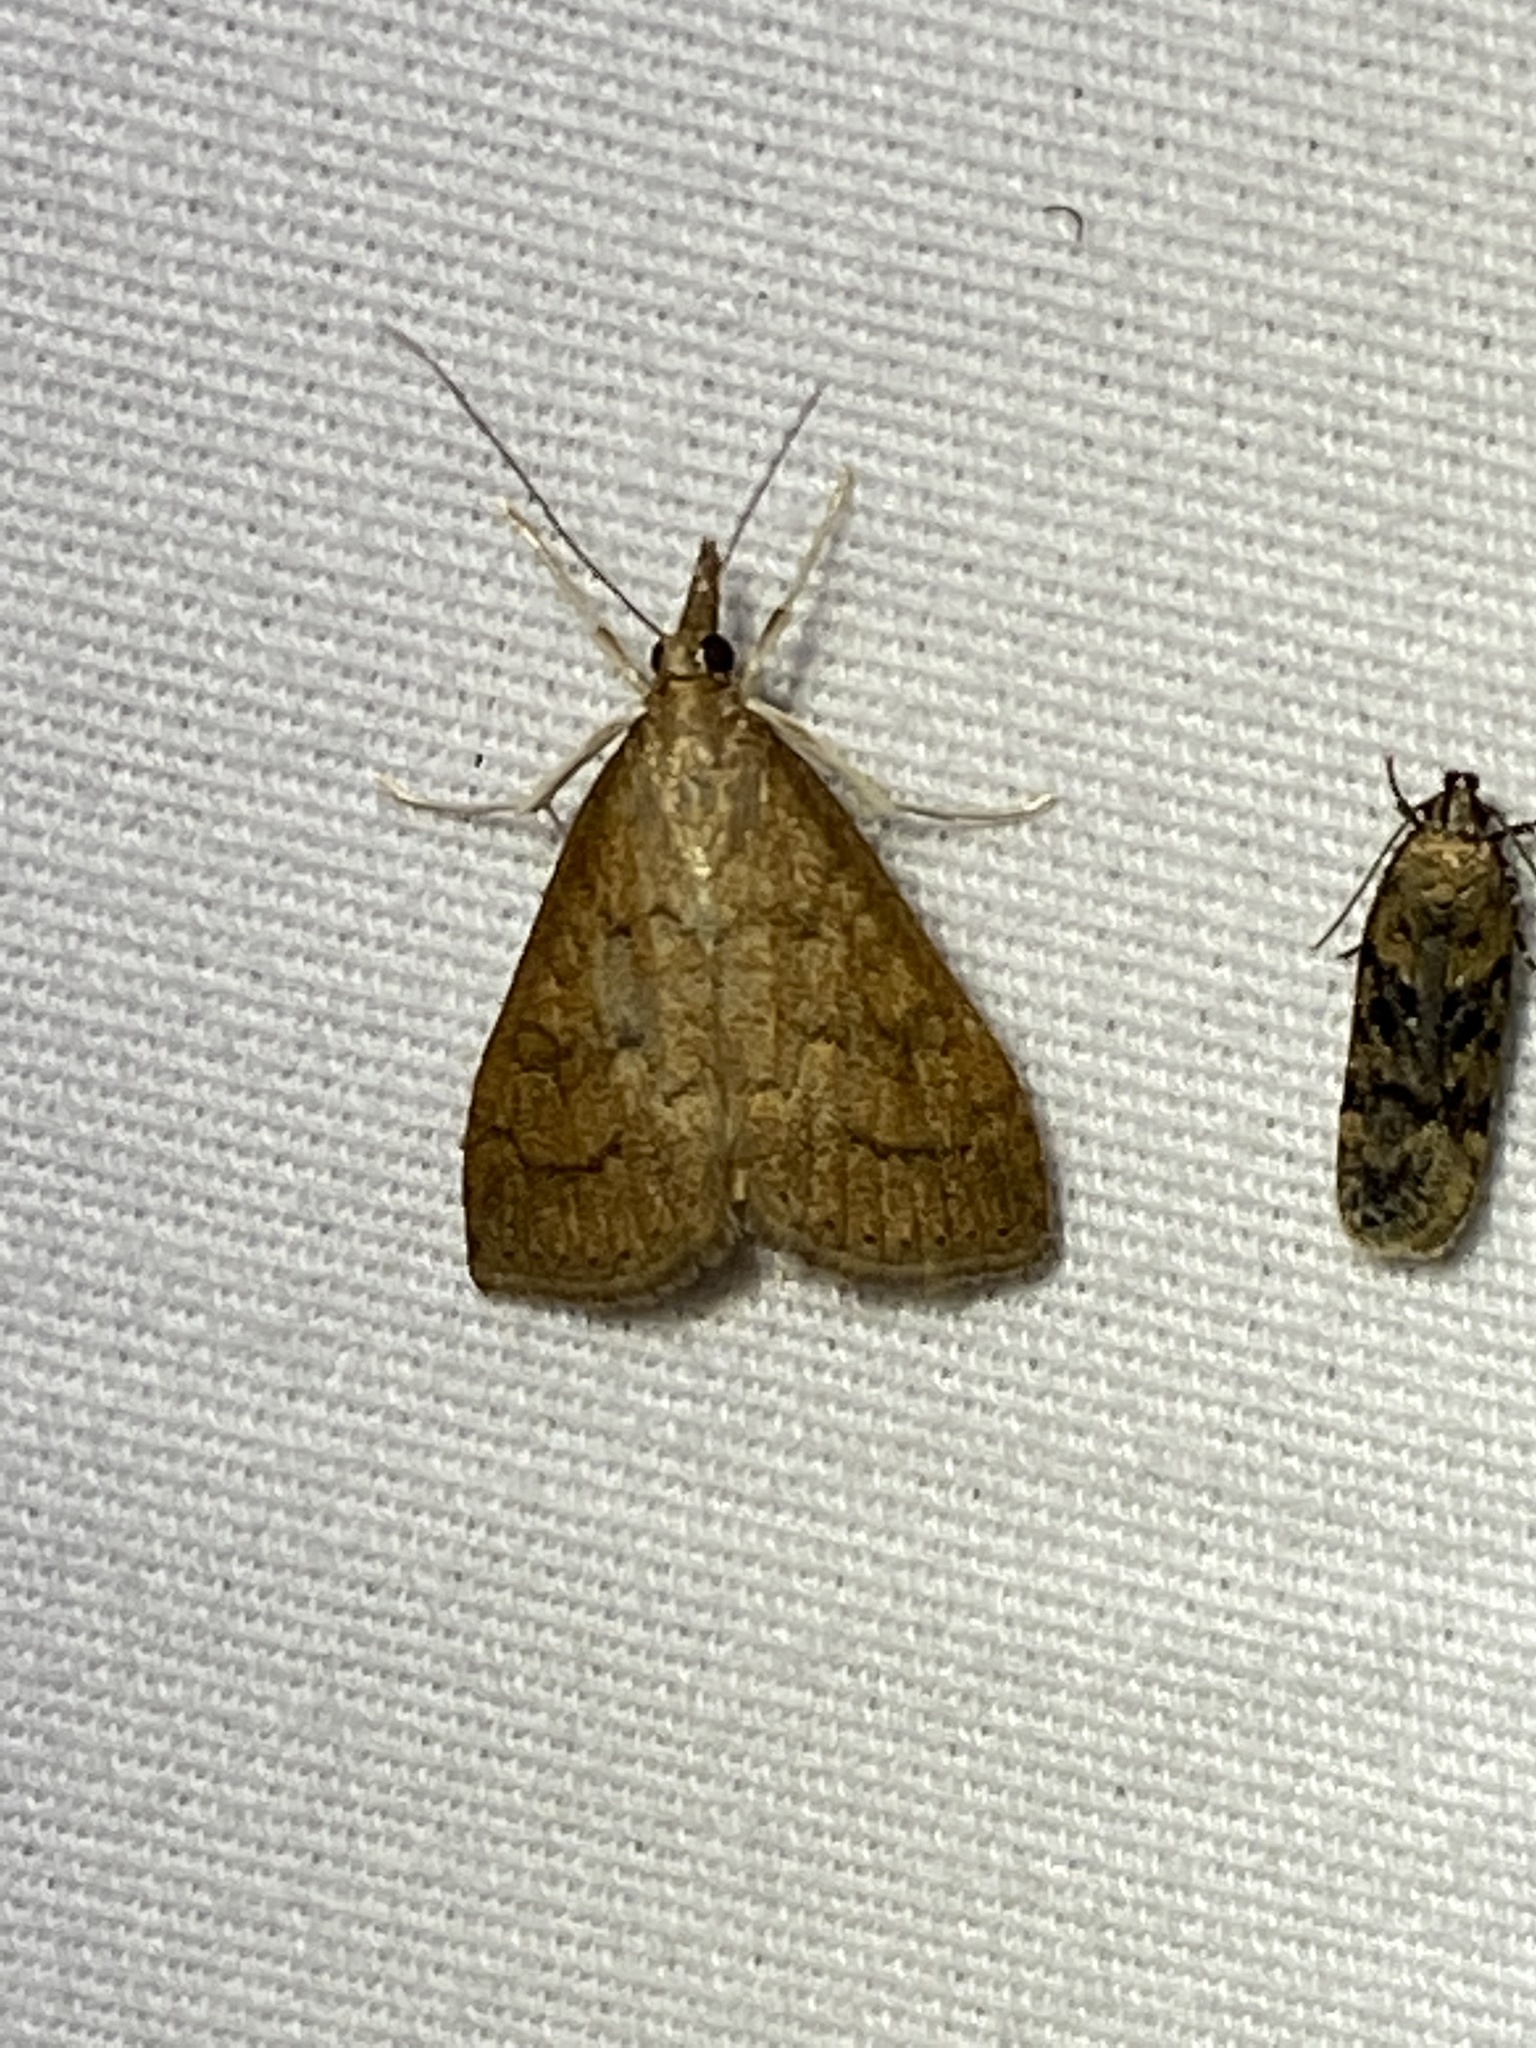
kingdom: Animalia
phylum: Arthropoda
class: Insecta
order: Lepidoptera
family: Crambidae
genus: Udea
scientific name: Udea rubigalis
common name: Celery leaftier moth
